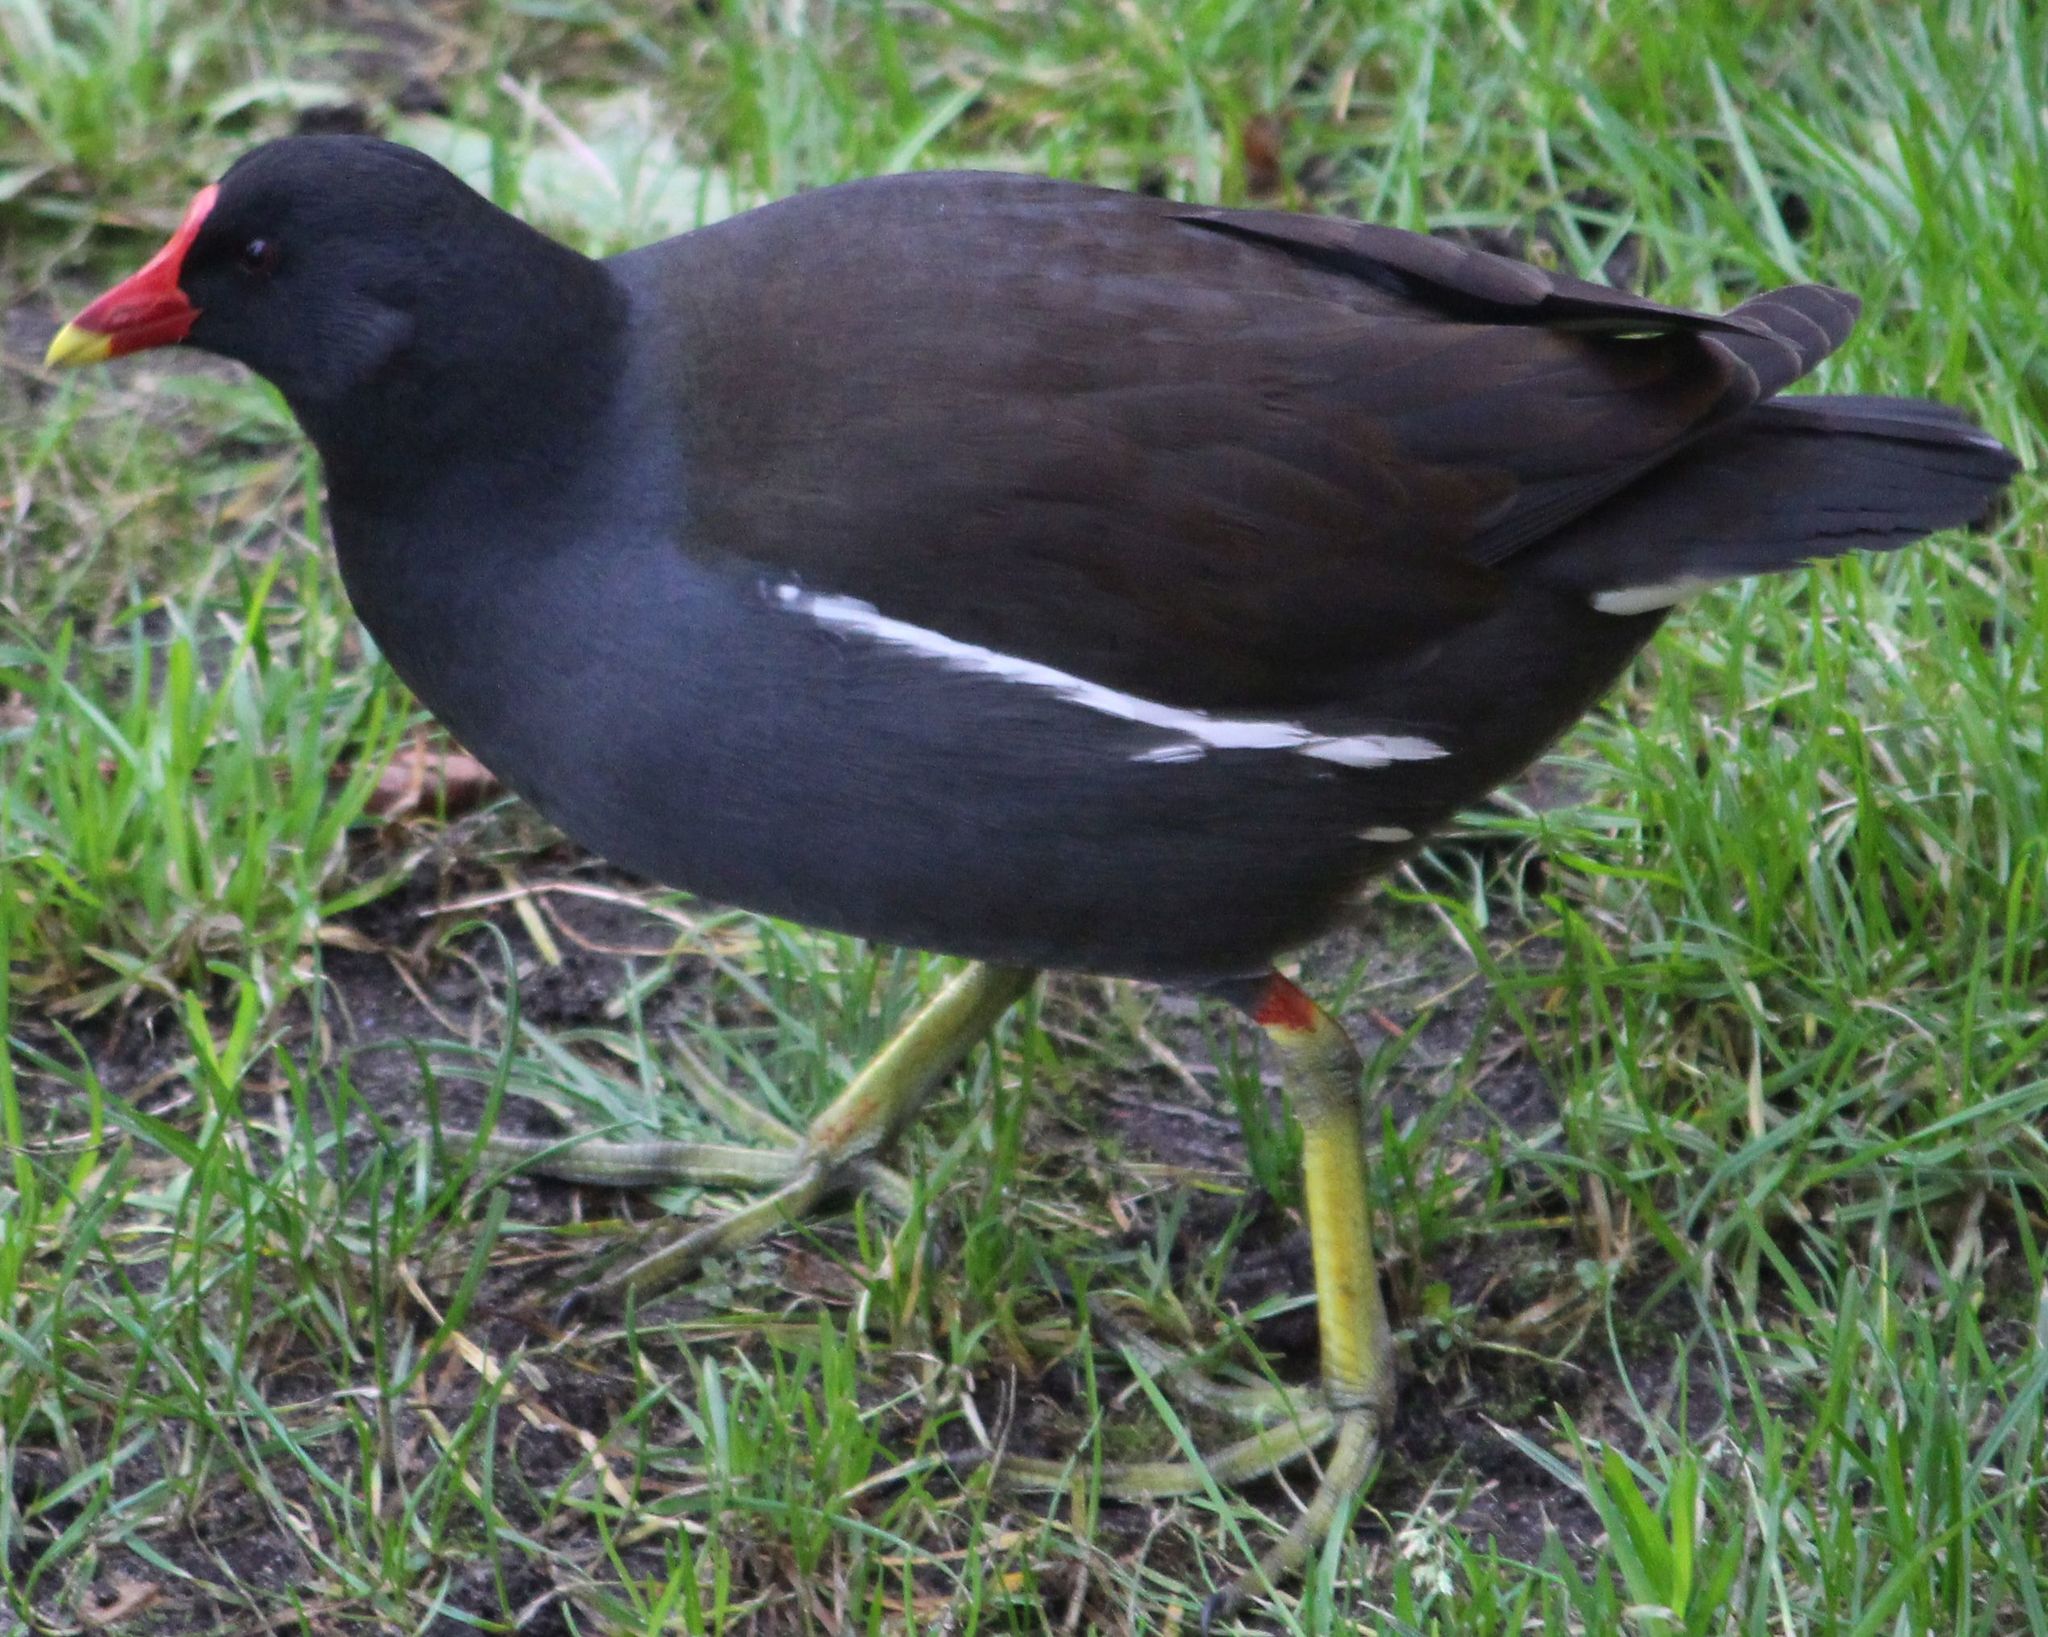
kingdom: Animalia
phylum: Chordata
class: Aves
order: Gruiformes
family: Rallidae
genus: Gallinula
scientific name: Gallinula chloropus
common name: Common moorhen
